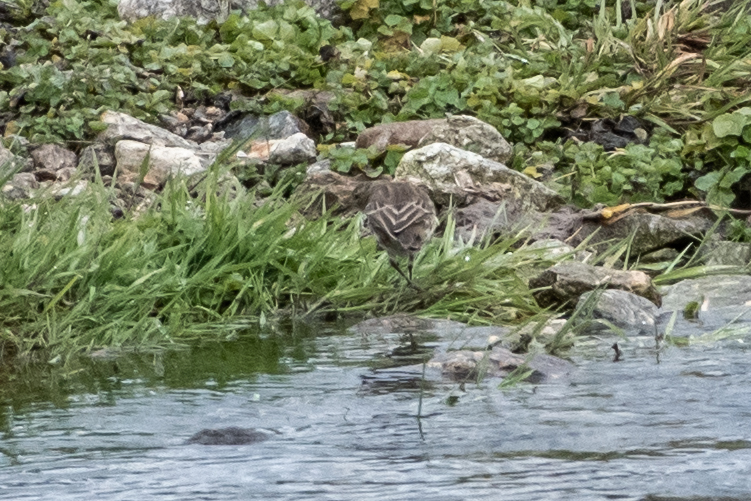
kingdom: Animalia
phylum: Chordata
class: Aves
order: Passeriformes
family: Motacillidae
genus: Anthus
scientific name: Anthus spinoletta
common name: Water pipit
